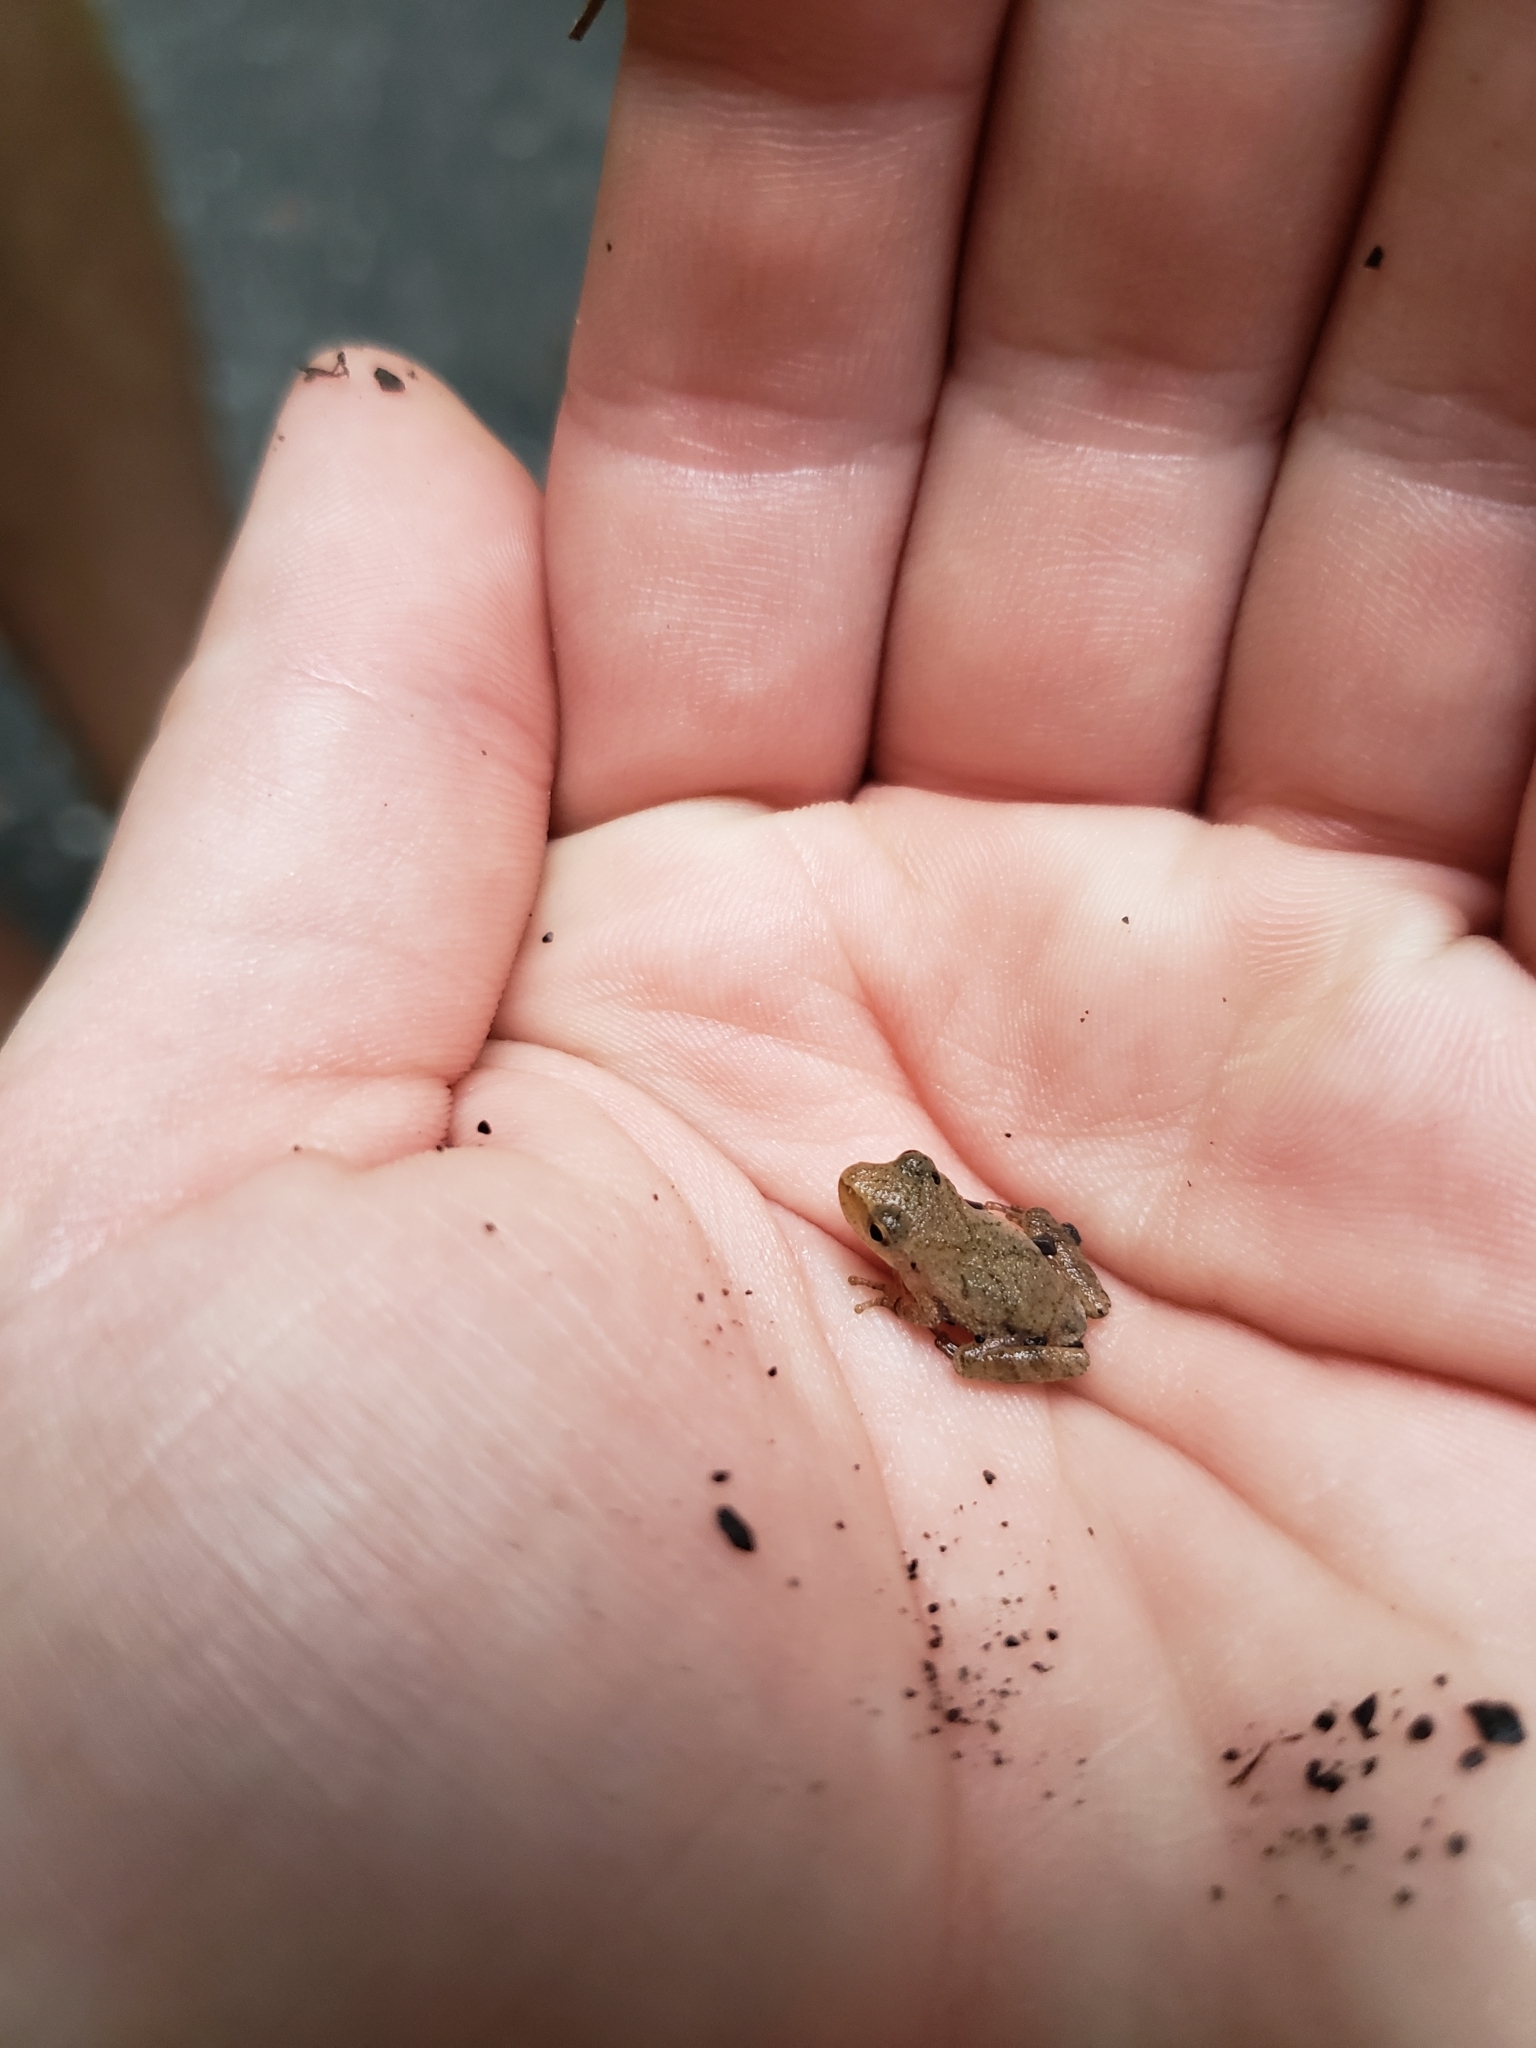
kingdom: Animalia
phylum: Chordata
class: Amphibia
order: Anura
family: Hylidae
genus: Pseudacris
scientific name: Pseudacris crucifer
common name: Spring peeper
